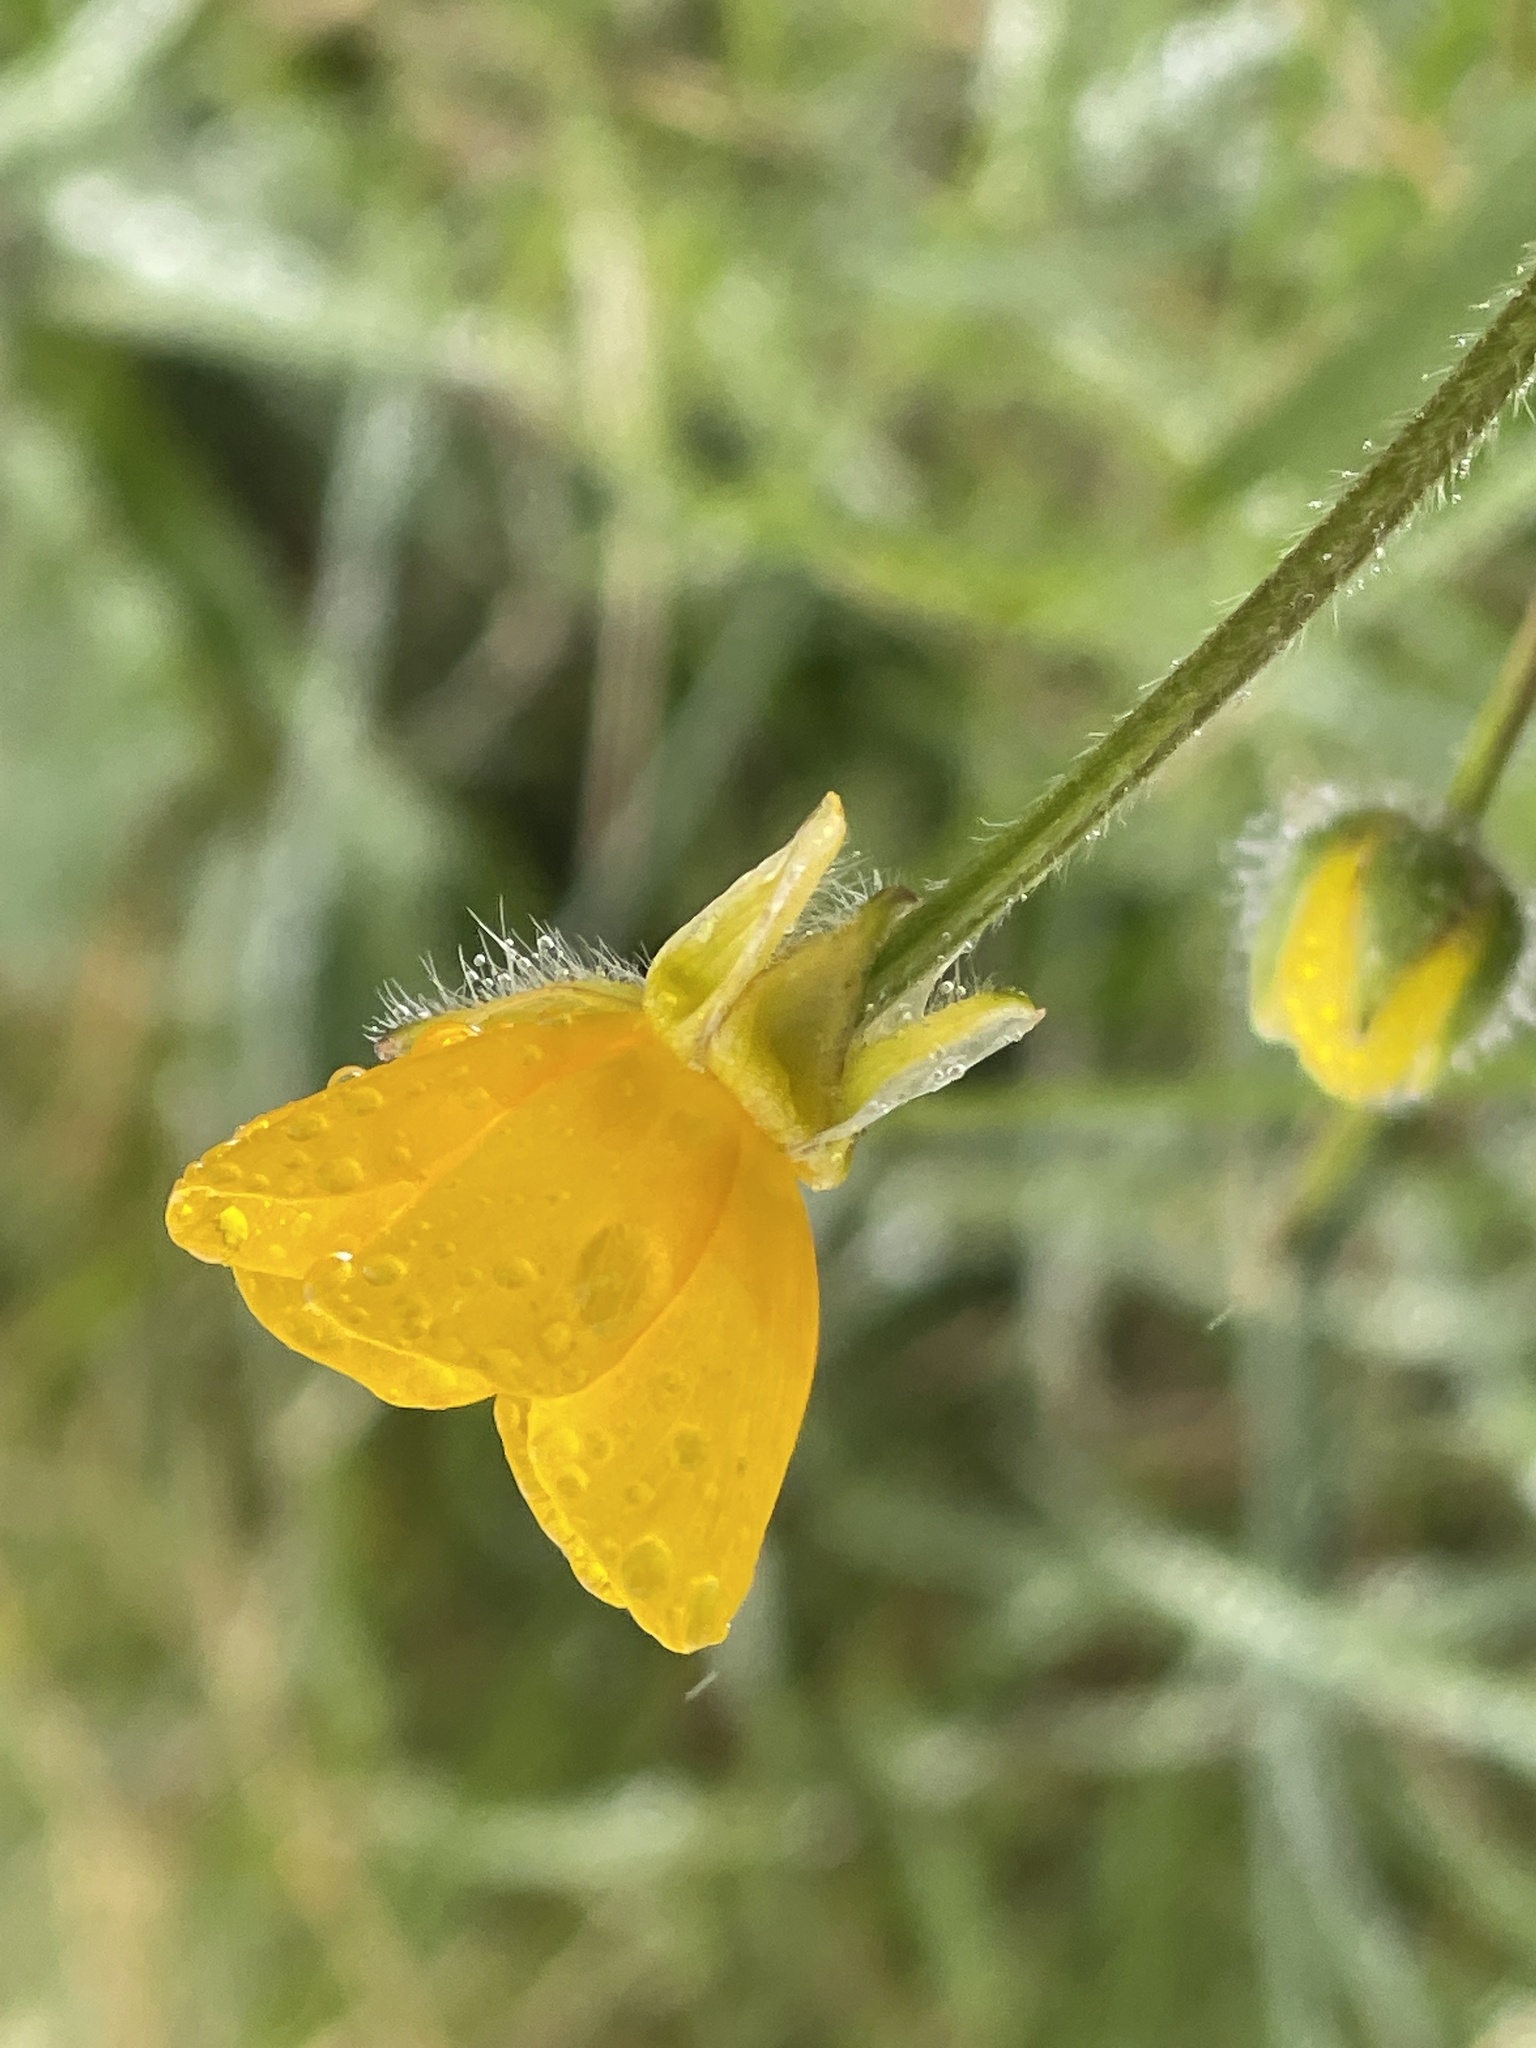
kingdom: Plantae
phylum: Tracheophyta
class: Magnoliopsida
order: Ranunculales
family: Ranunculaceae
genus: Ranunculus
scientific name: Ranunculus bulbosus
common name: Bulbous buttercup
